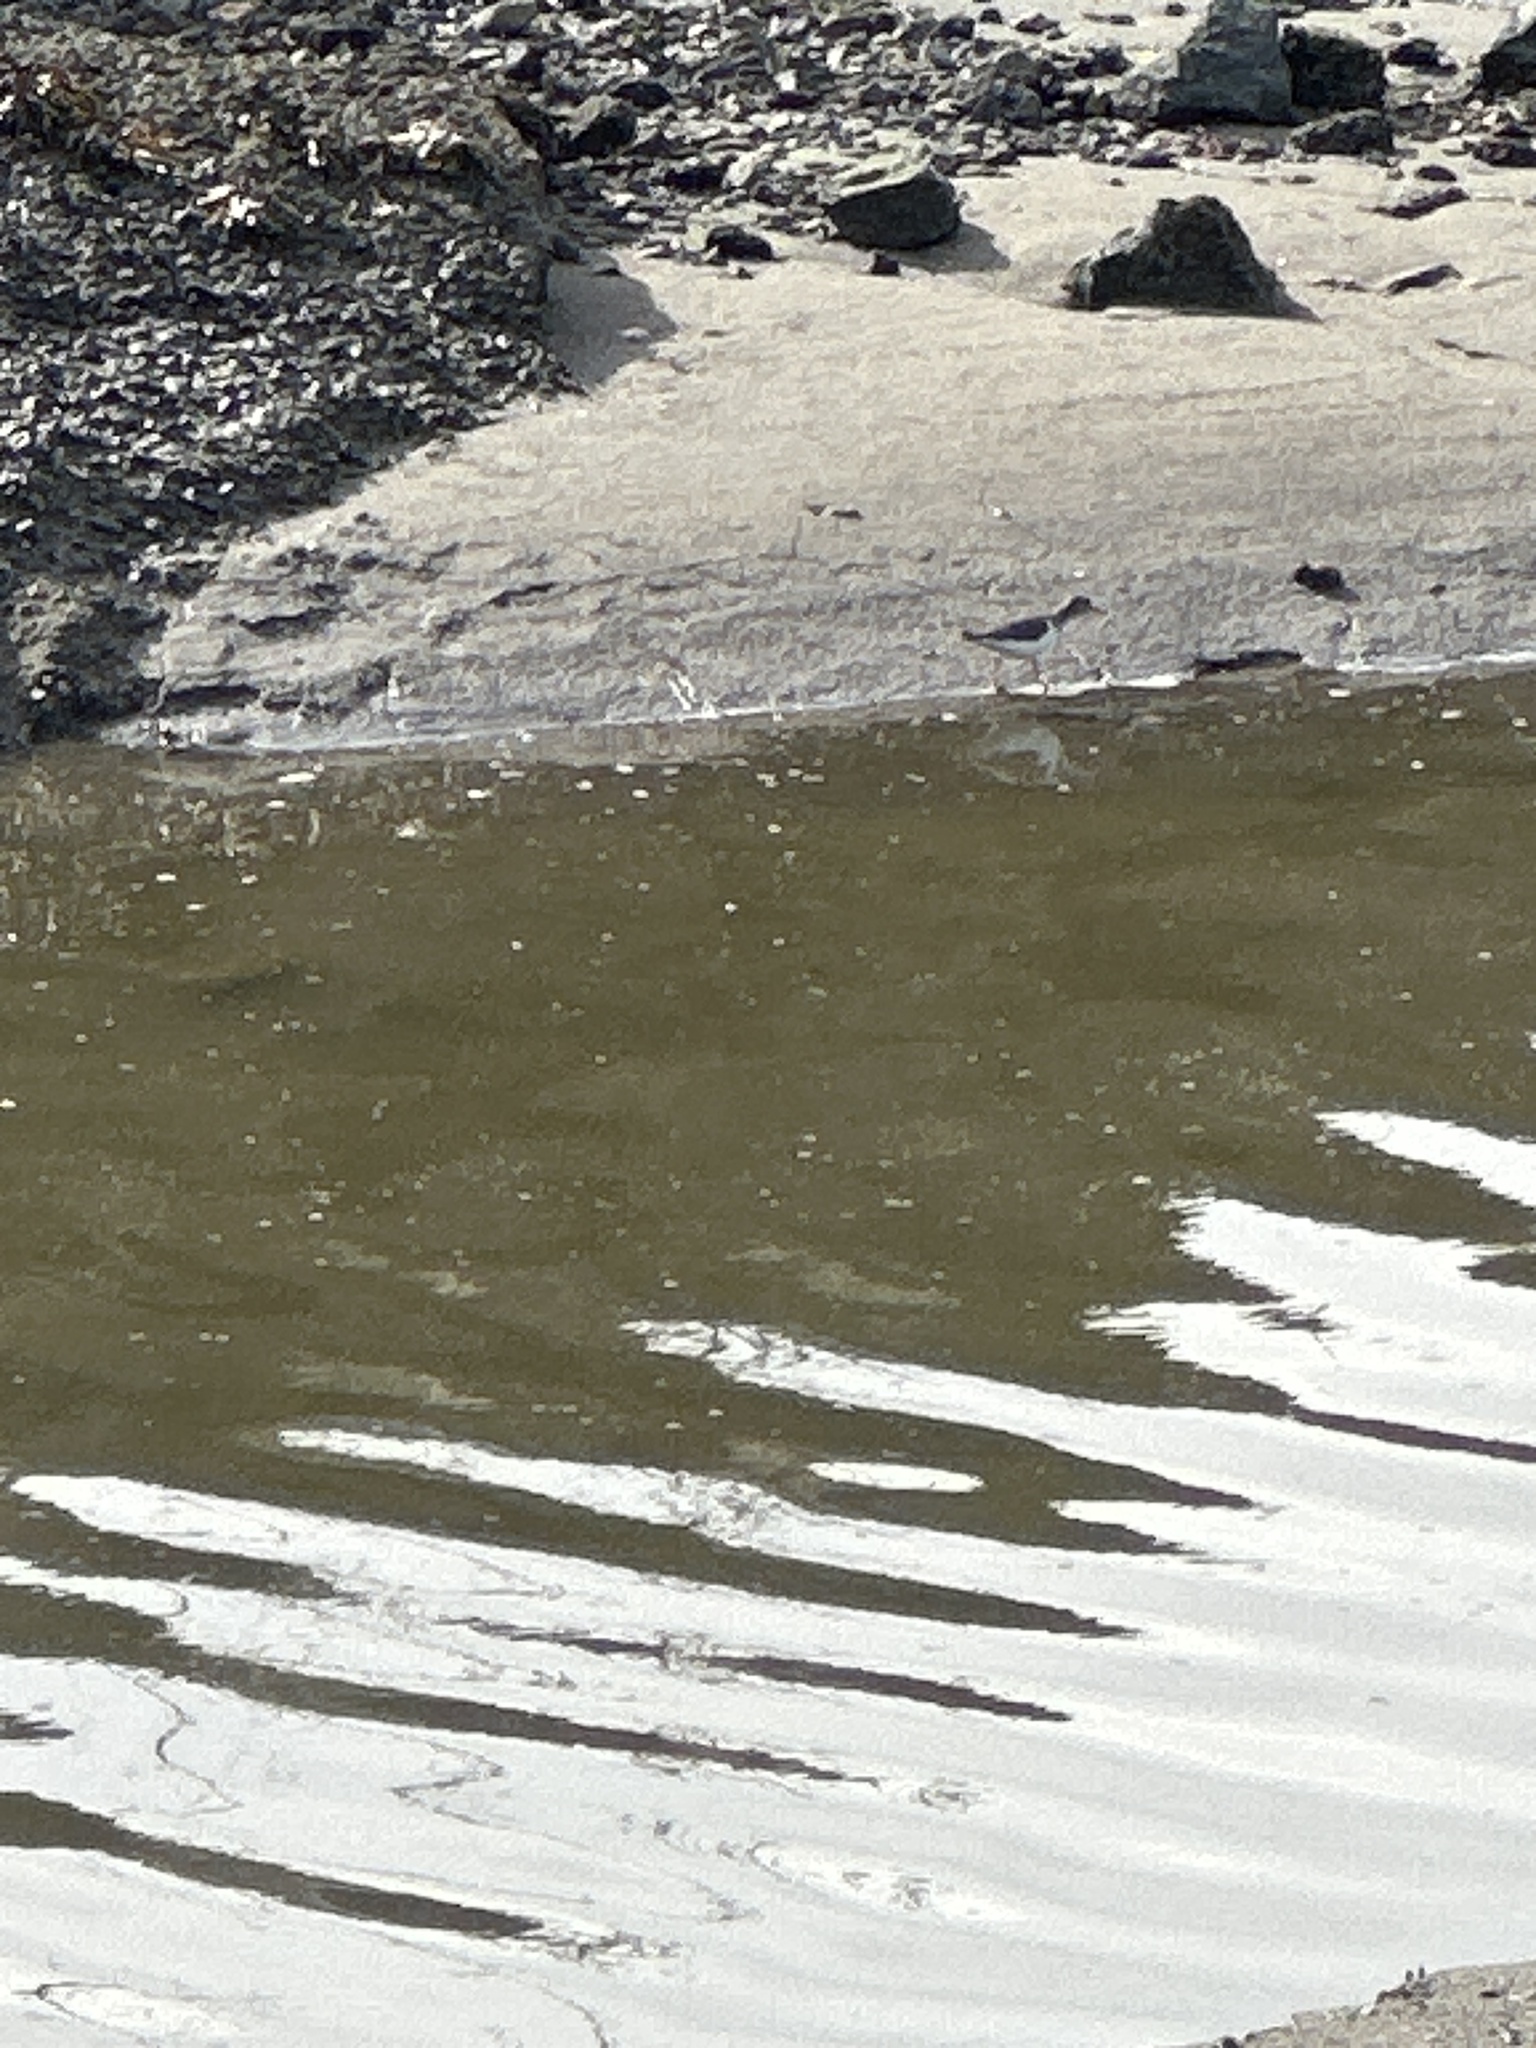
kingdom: Animalia
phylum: Chordata
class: Aves
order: Charadriiformes
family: Scolopacidae
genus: Actitis
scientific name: Actitis macularius
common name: Spotted sandpiper
